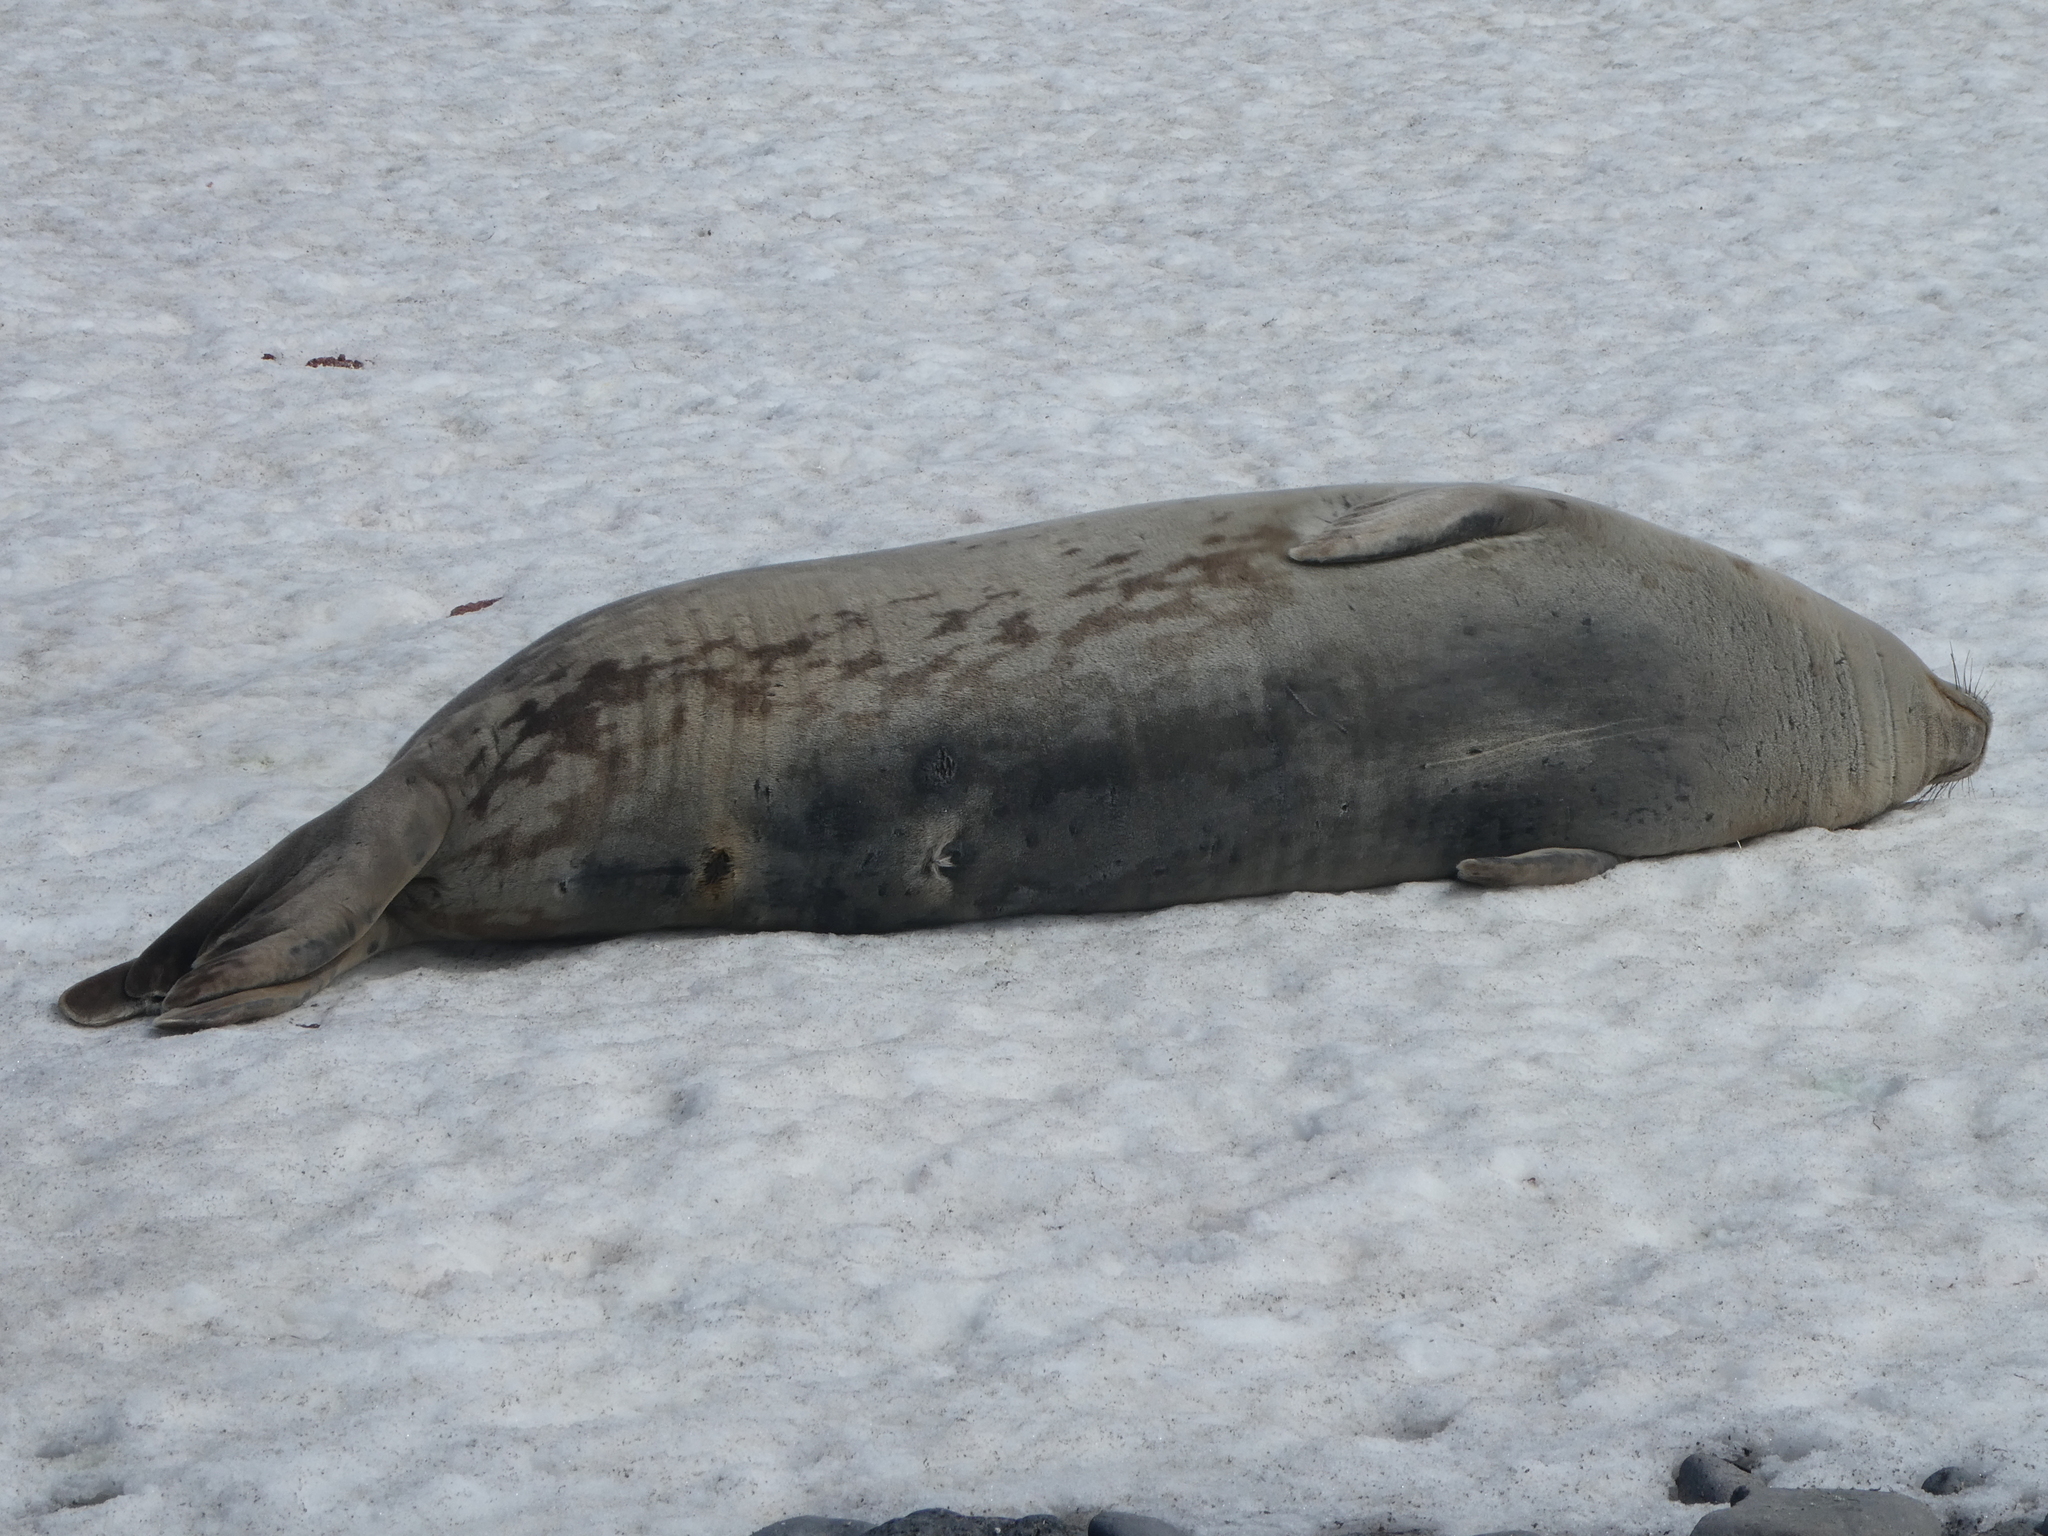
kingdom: Animalia
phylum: Chordata
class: Mammalia
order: Carnivora
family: Phocidae
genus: Leptonychotes
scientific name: Leptonychotes weddellii
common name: Weddell seal
